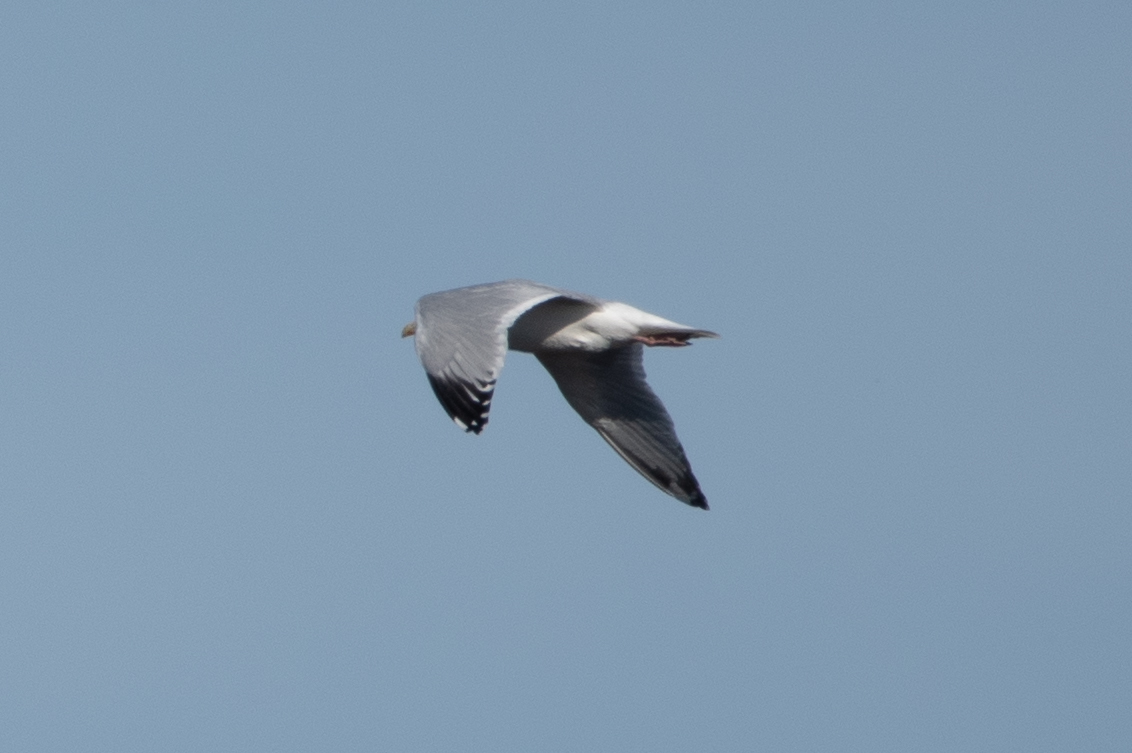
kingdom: Animalia
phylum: Chordata
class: Aves
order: Charadriiformes
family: Laridae
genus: Larus
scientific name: Larus argentatus
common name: Herring gull
